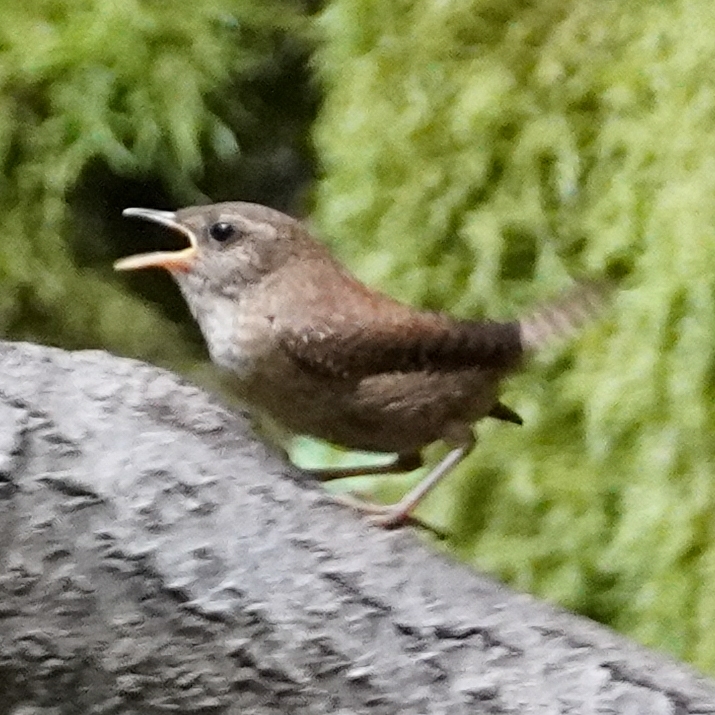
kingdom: Animalia
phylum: Chordata
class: Aves
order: Passeriformes
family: Troglodytidae
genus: Troglodytes
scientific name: Troglodytes troglodytes
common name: Eurasian wren
